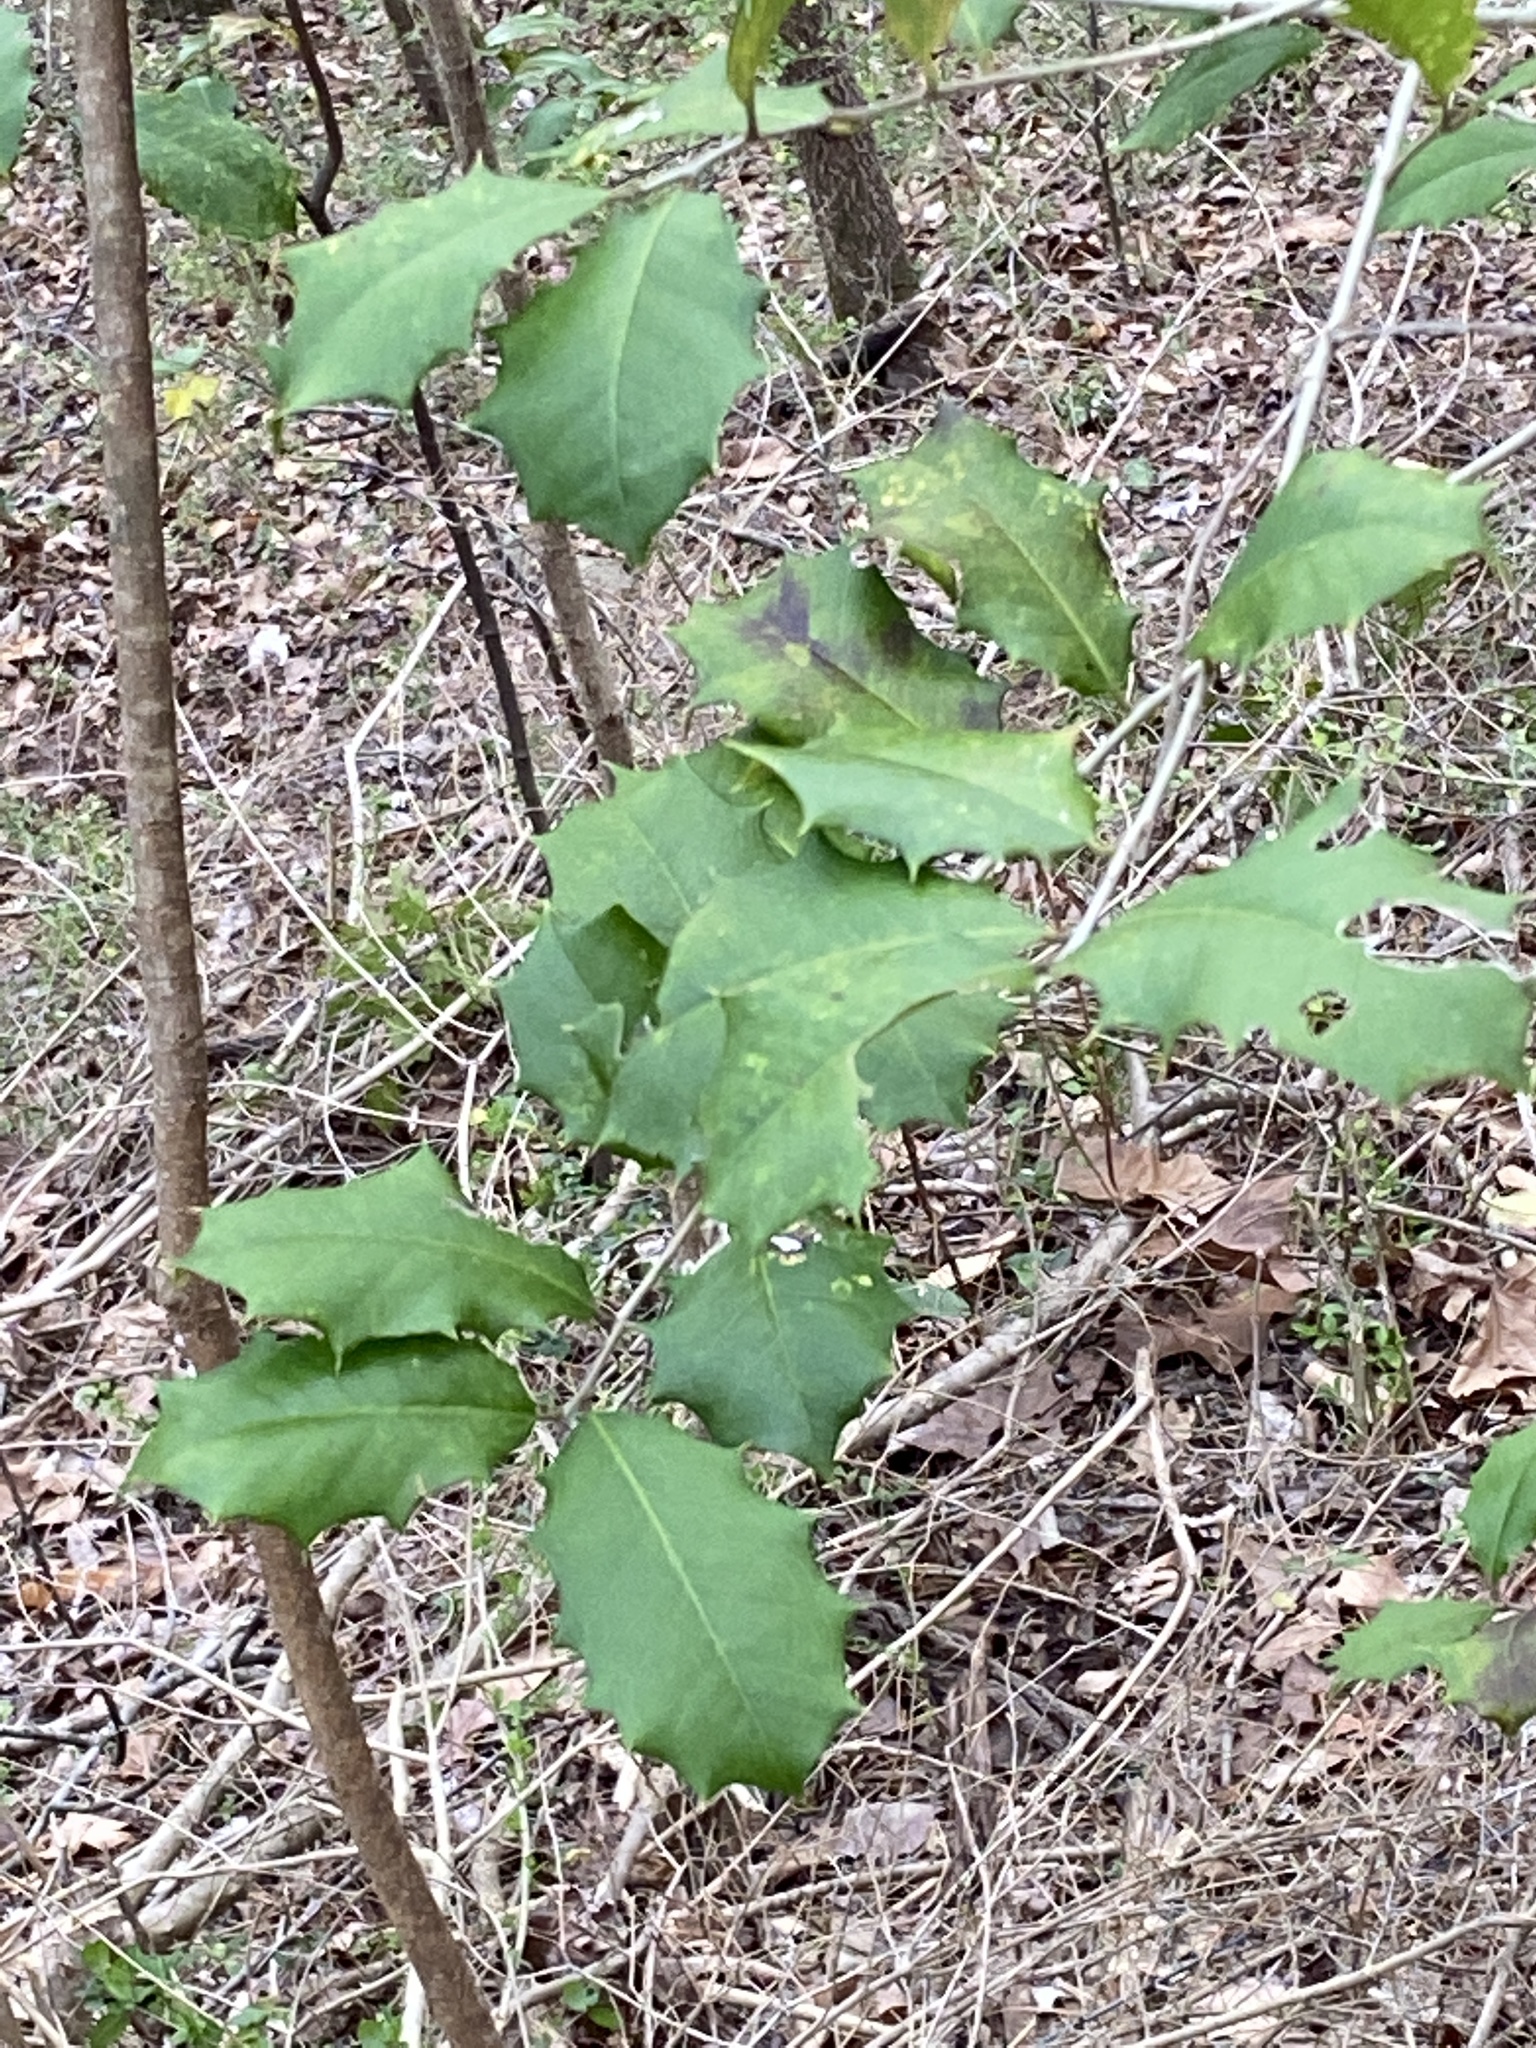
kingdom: Plantae
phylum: Tracheophyta
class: Magnoliopsida
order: Aquifoliales
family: Aquifoliaceae
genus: Ilex
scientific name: Ilex opaca
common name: American holly
